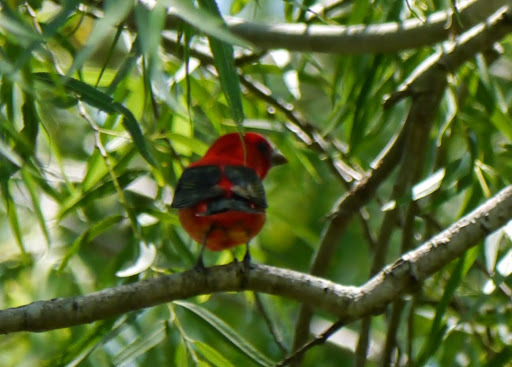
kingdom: Animalia
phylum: Chordata
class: Aves
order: Passeriformes
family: Cardinalidae
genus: Piranga
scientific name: Piranga olivacea
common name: Scarlet tanager
